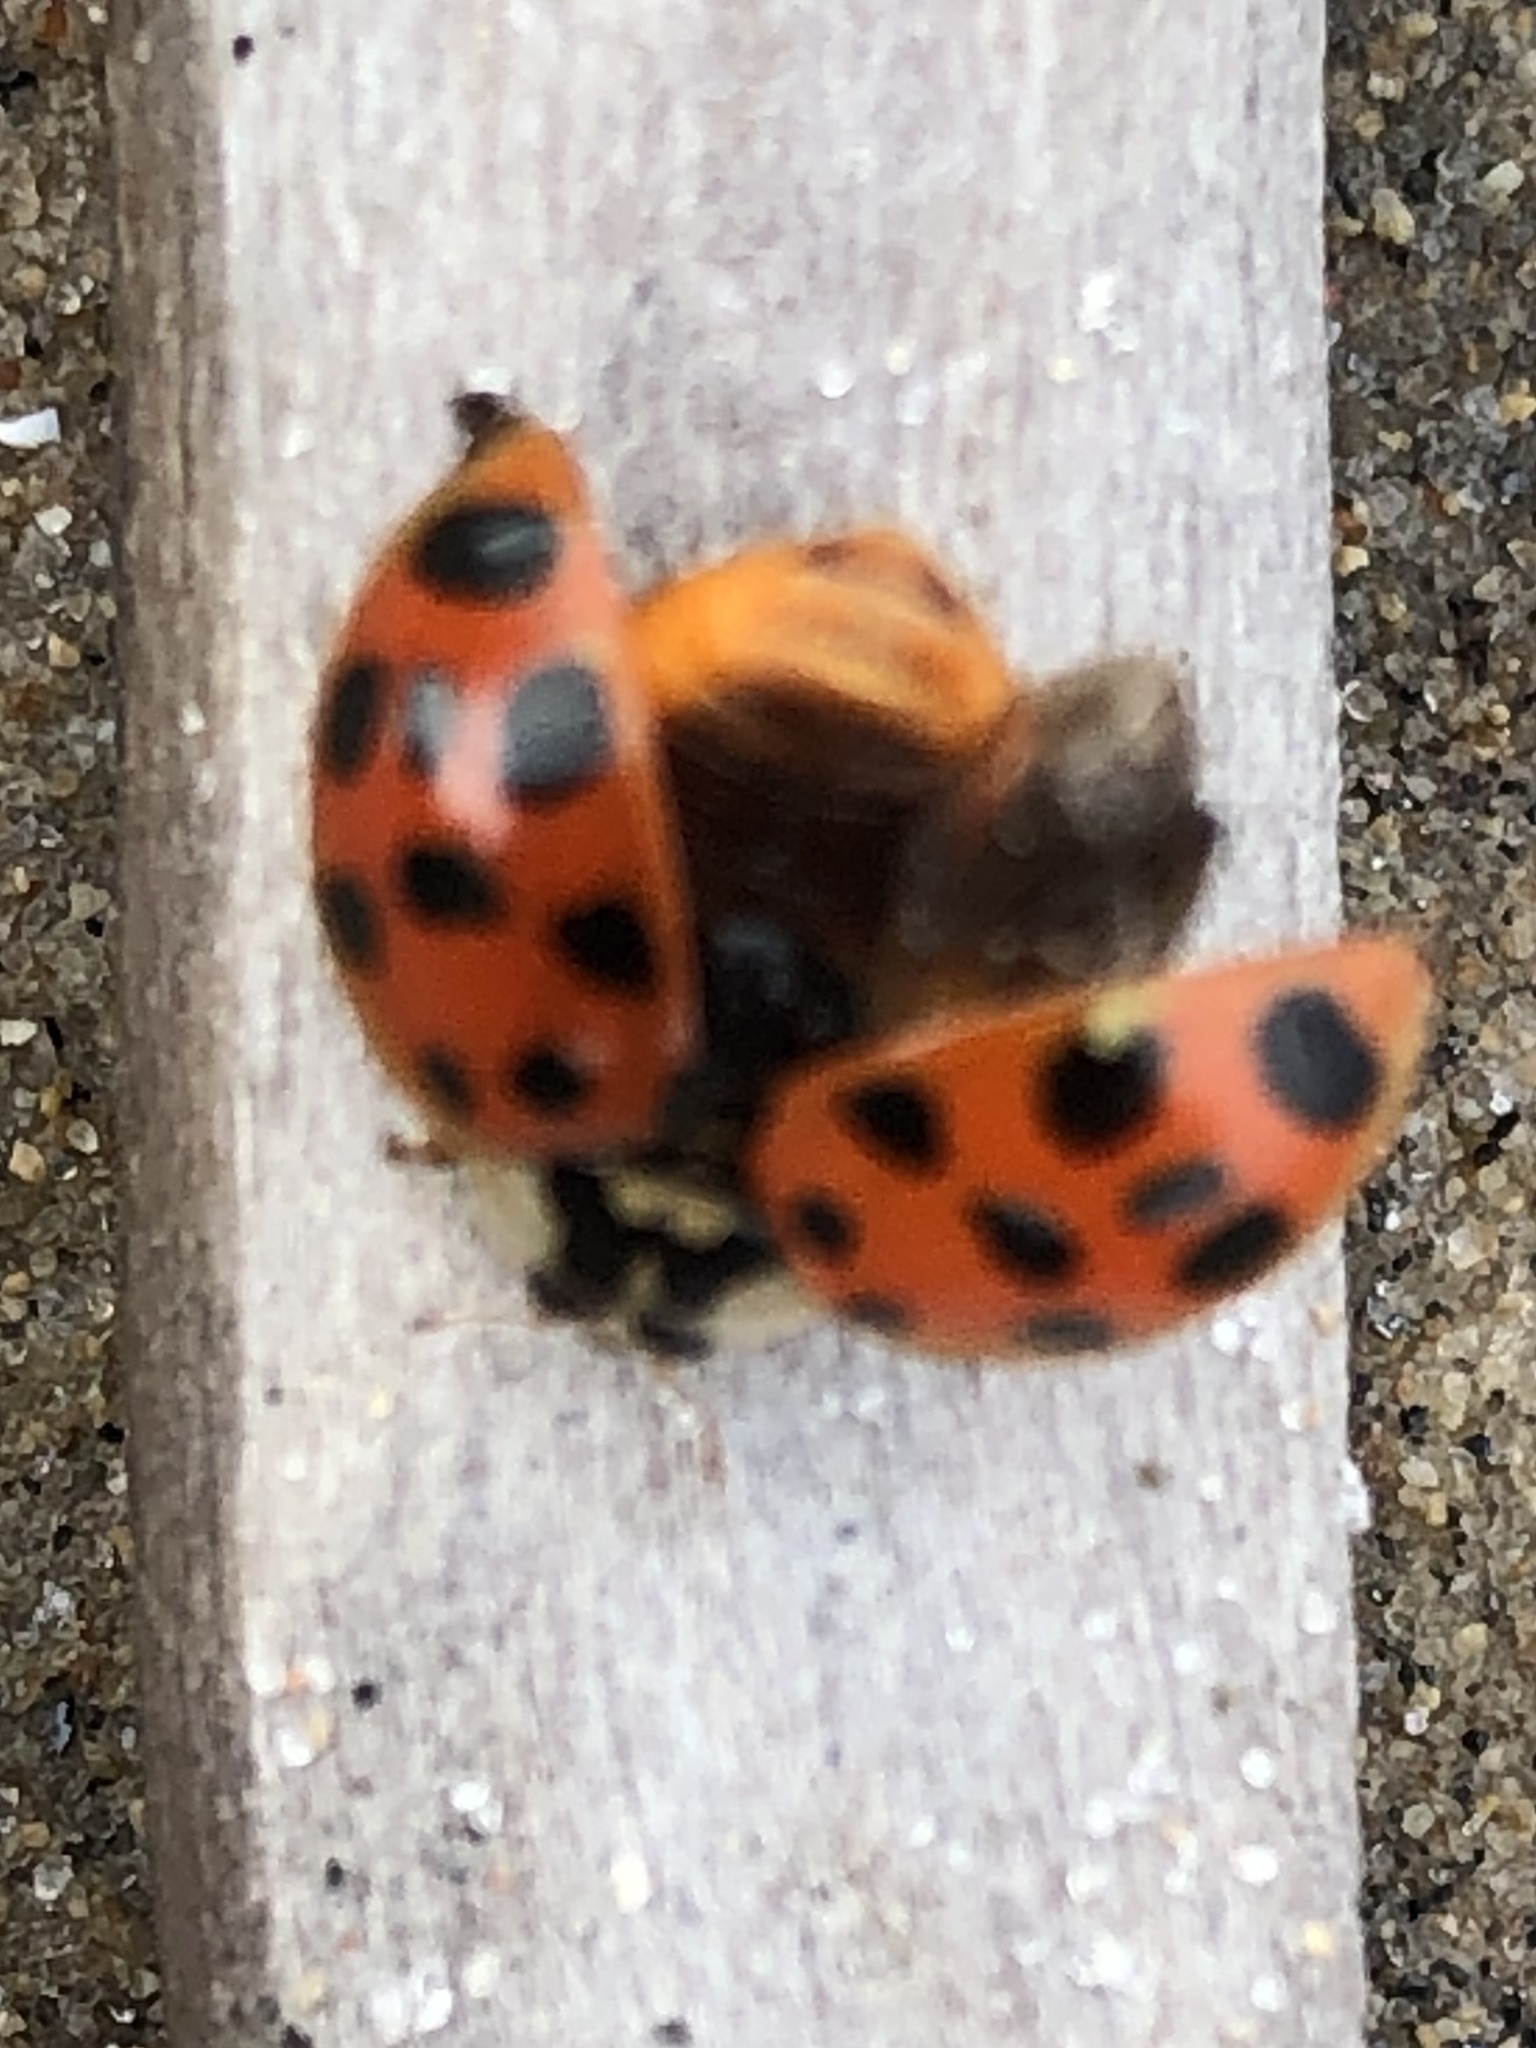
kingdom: Animalia
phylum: Arthropoda
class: Insecta
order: Coleoptera
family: Coccinellidae
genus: Harmonia
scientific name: Harmonia axyridis
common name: Harlequin ladybird
